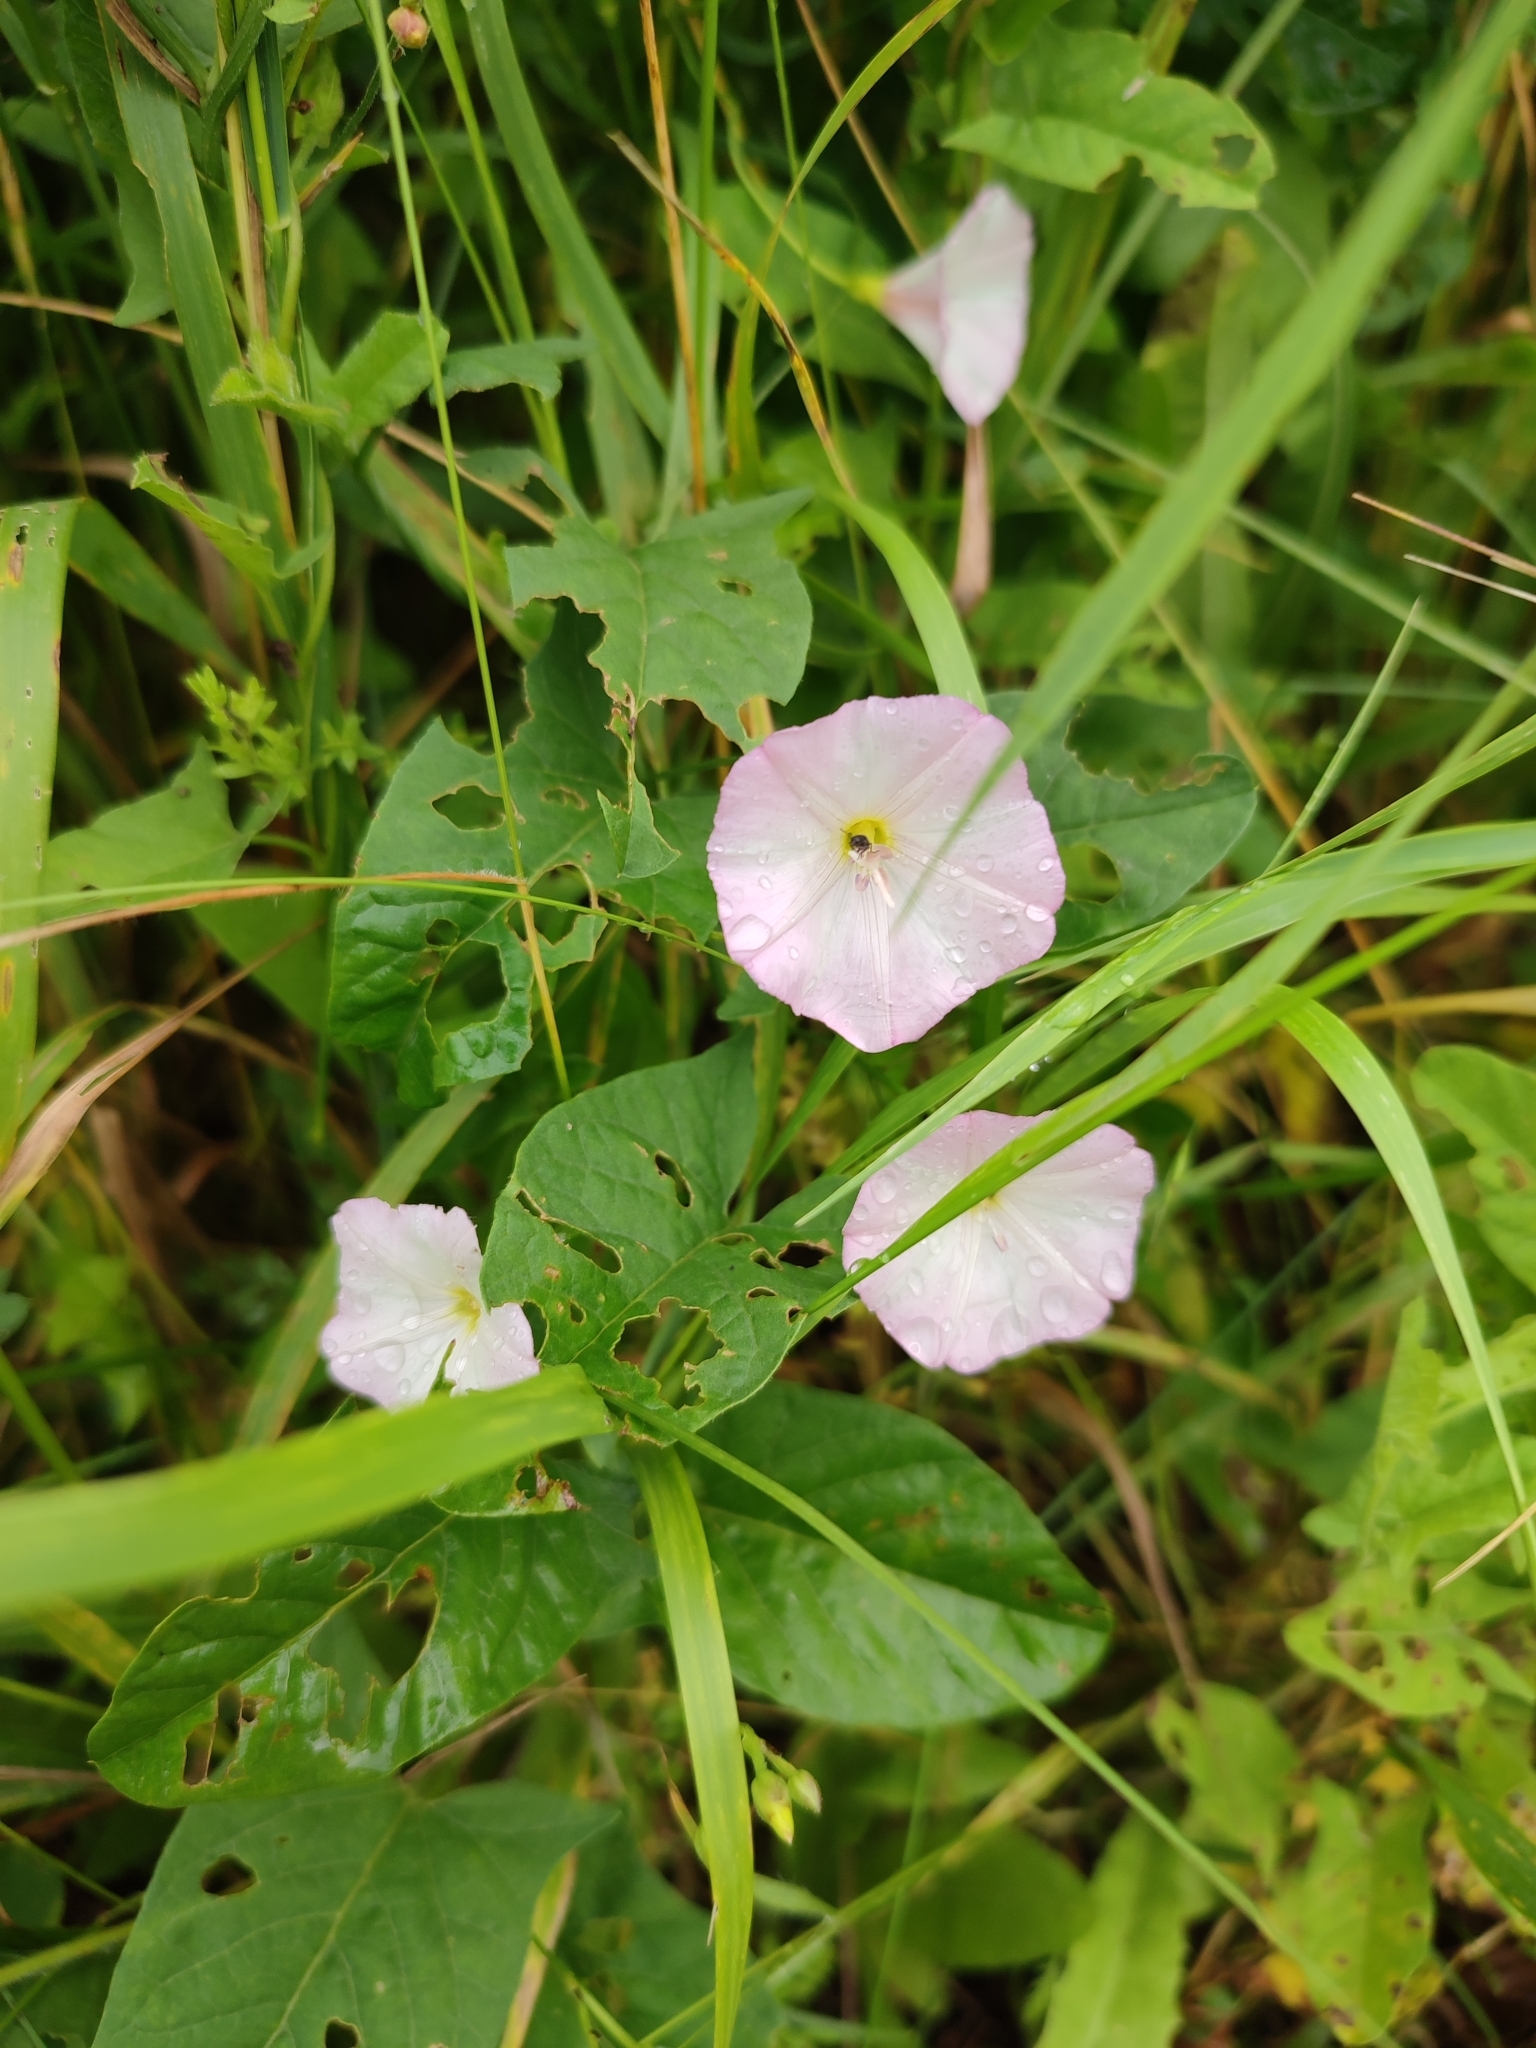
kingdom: Plantae
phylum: Tracheophyta
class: Magnoliopsida
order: Solanales
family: Convolvulaceae
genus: Convolvulus
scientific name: Convolvulus arvensis
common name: Field bindweed
